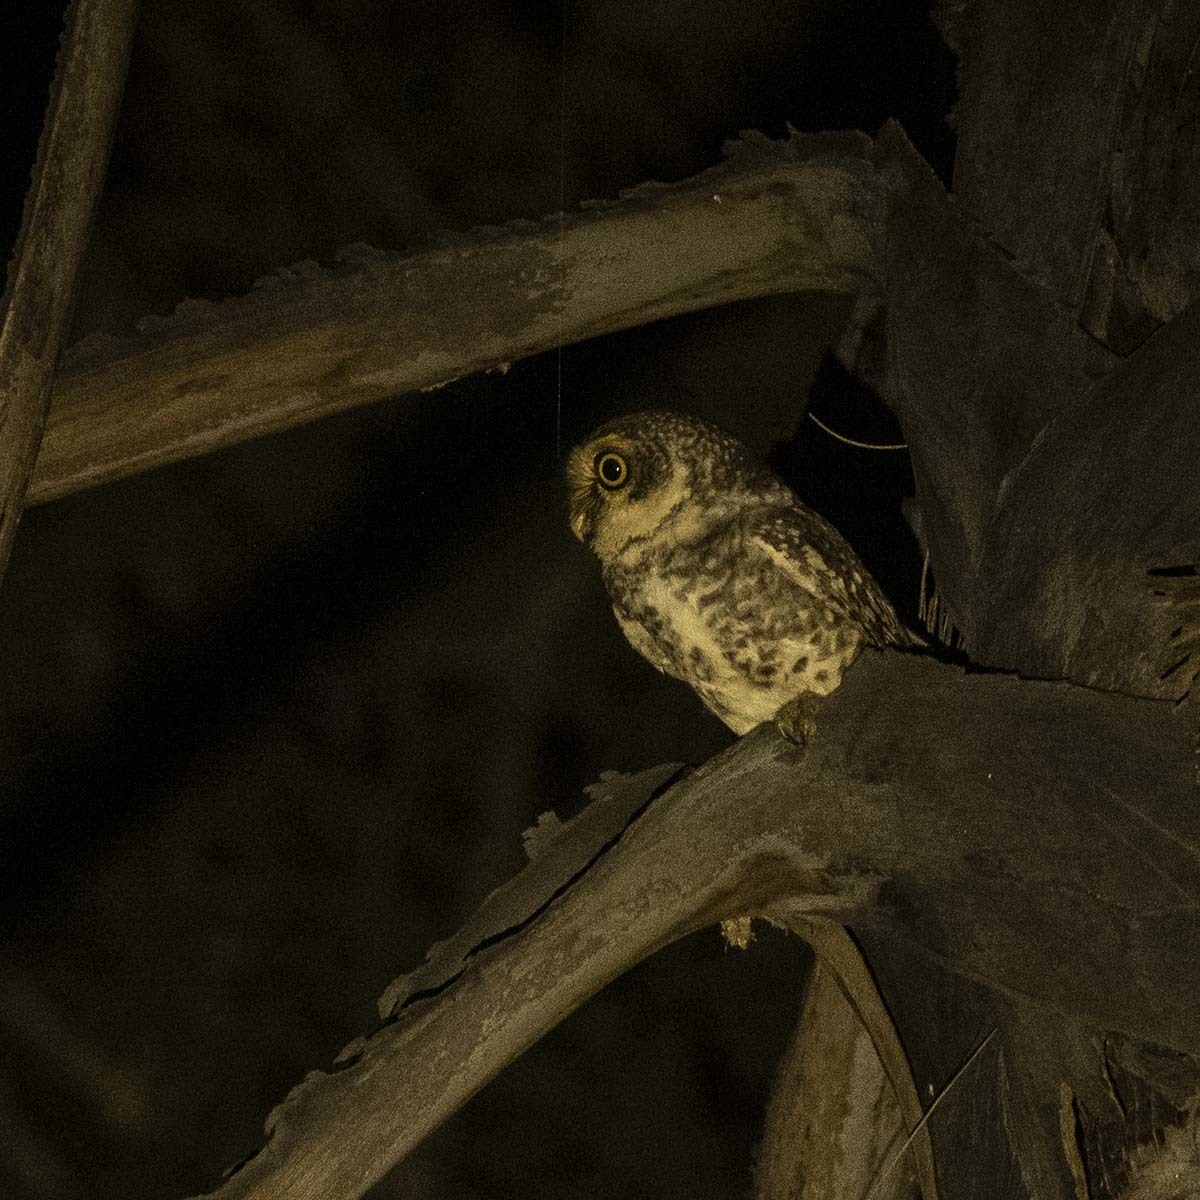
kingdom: Animalia
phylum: Chordata
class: Aves
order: Strigiformes
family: Strigidae
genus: Athene
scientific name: Athene brama
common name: Spotted owlet
